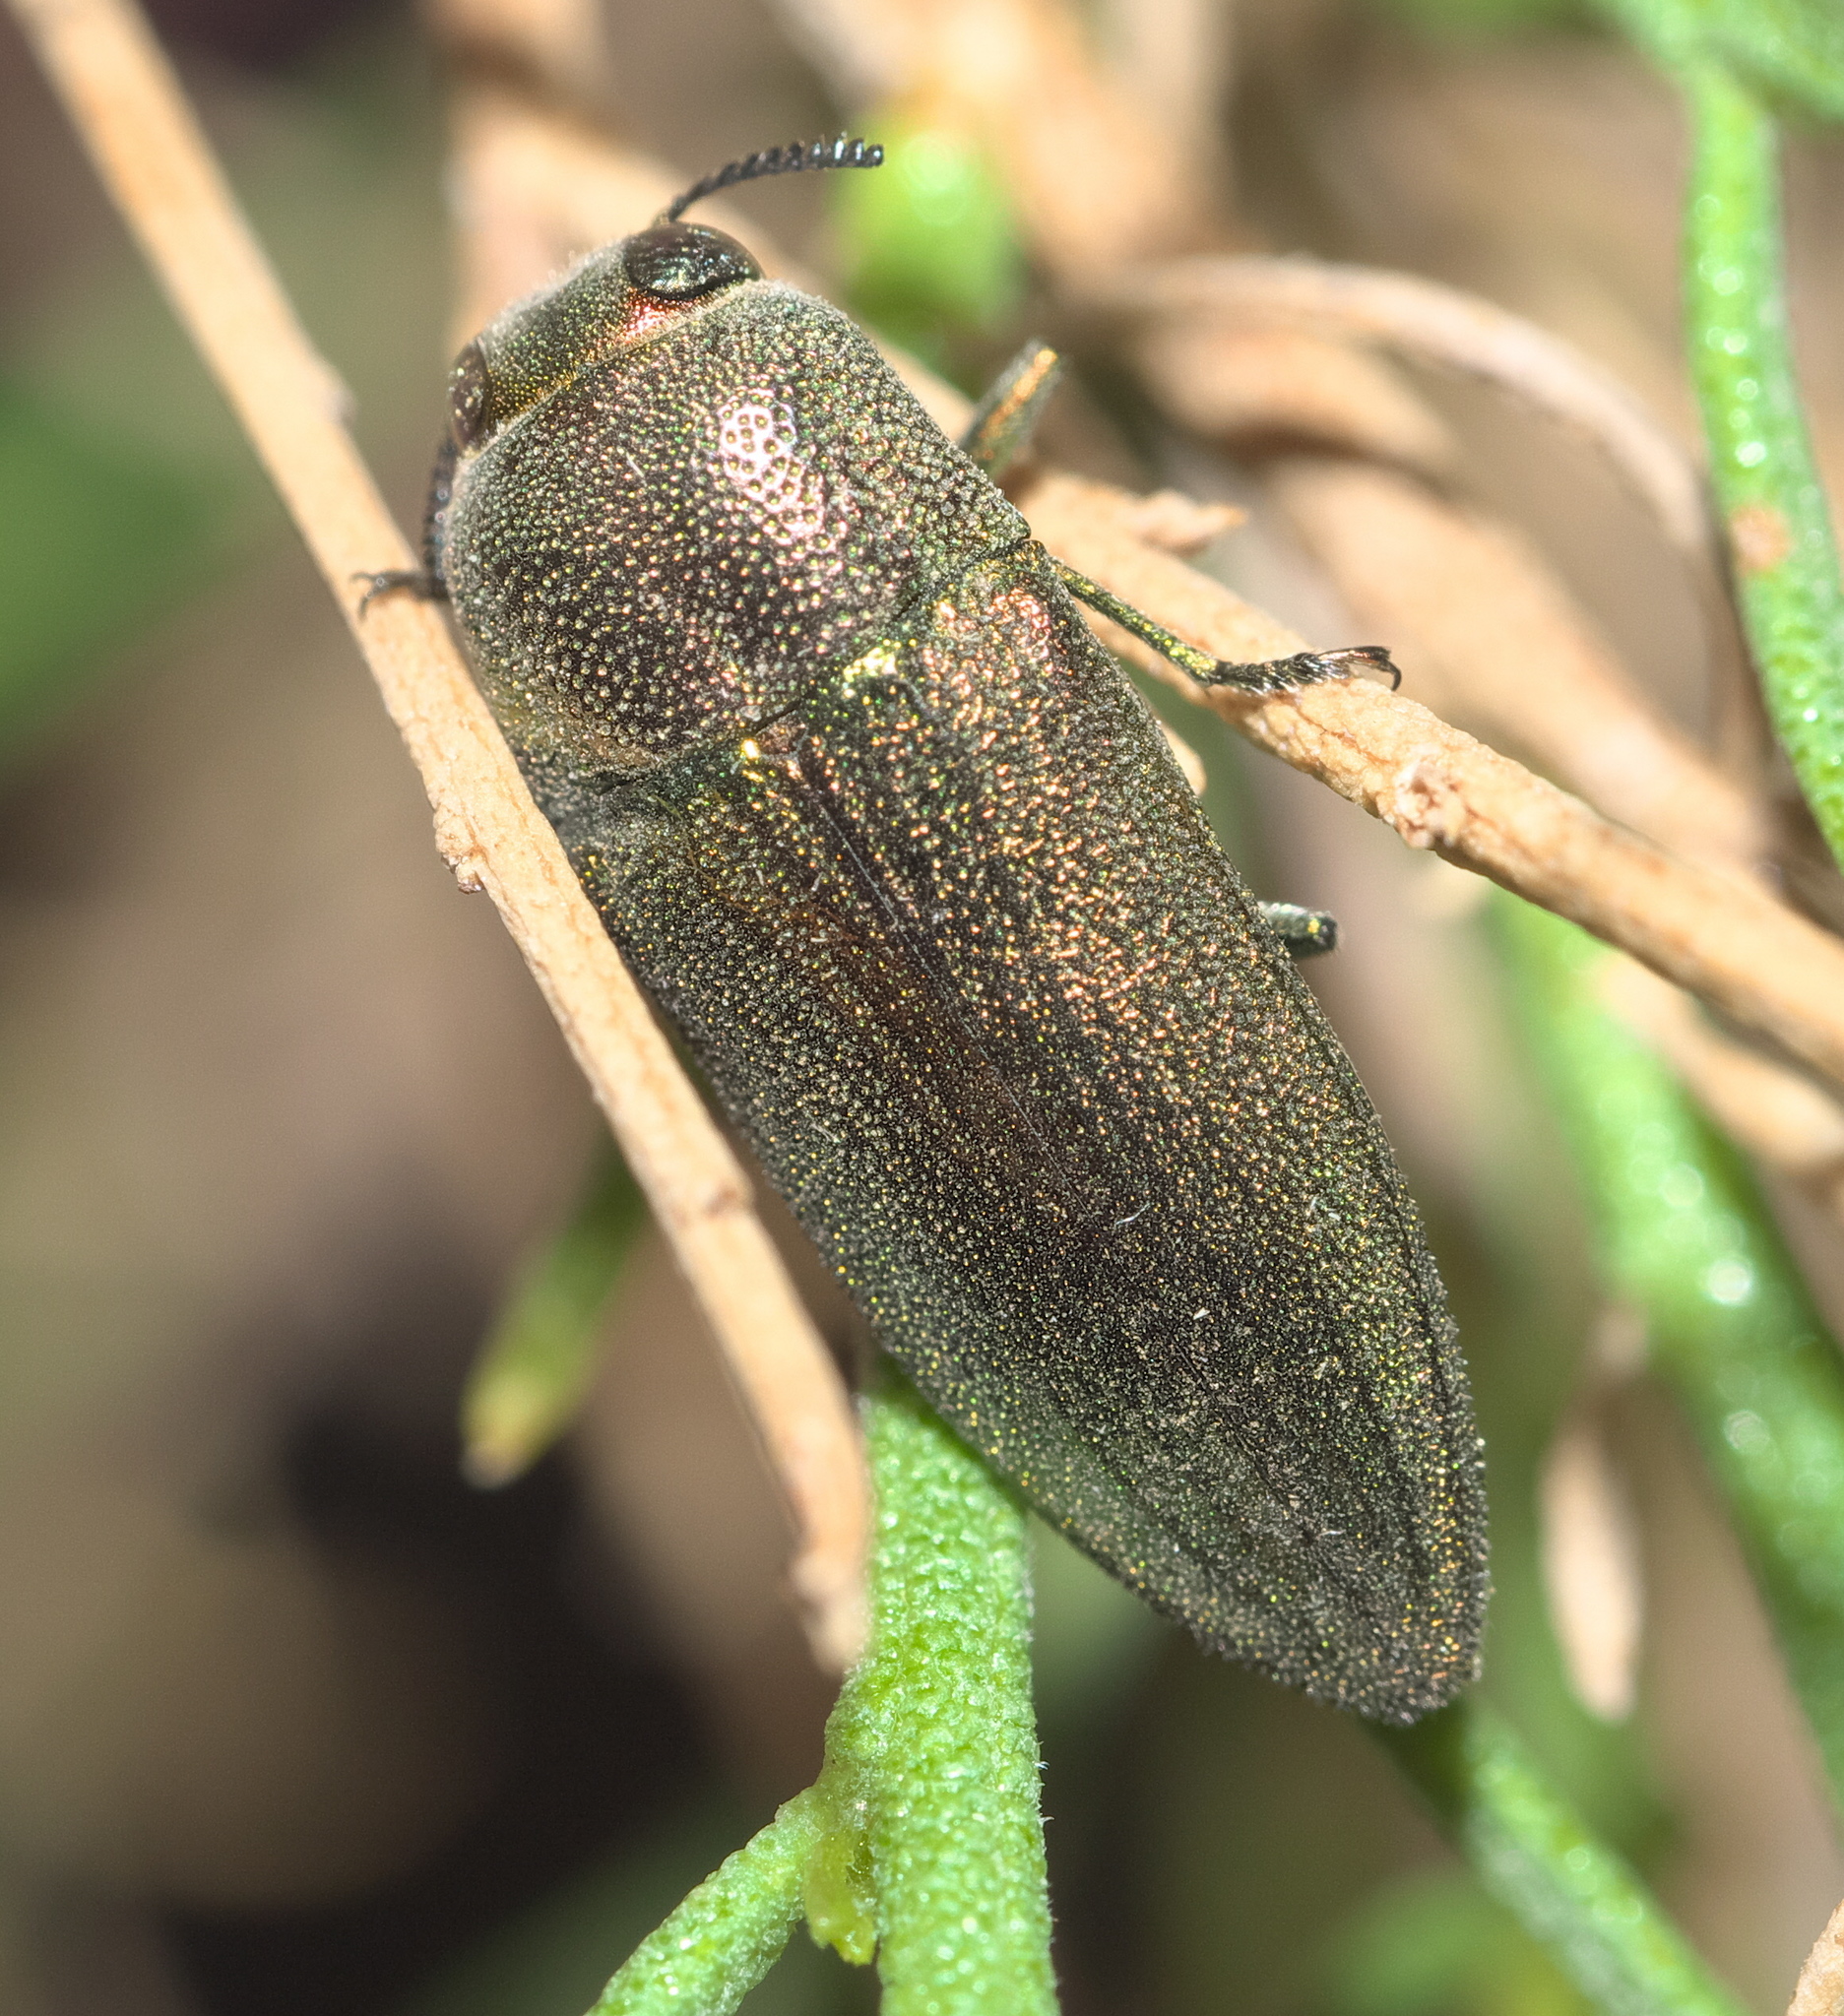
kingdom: Animalia
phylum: Arthropoda
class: Insecta
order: Coleoptera
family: Buprestidae
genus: Agaeocera
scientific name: Agaeocera gentilis
